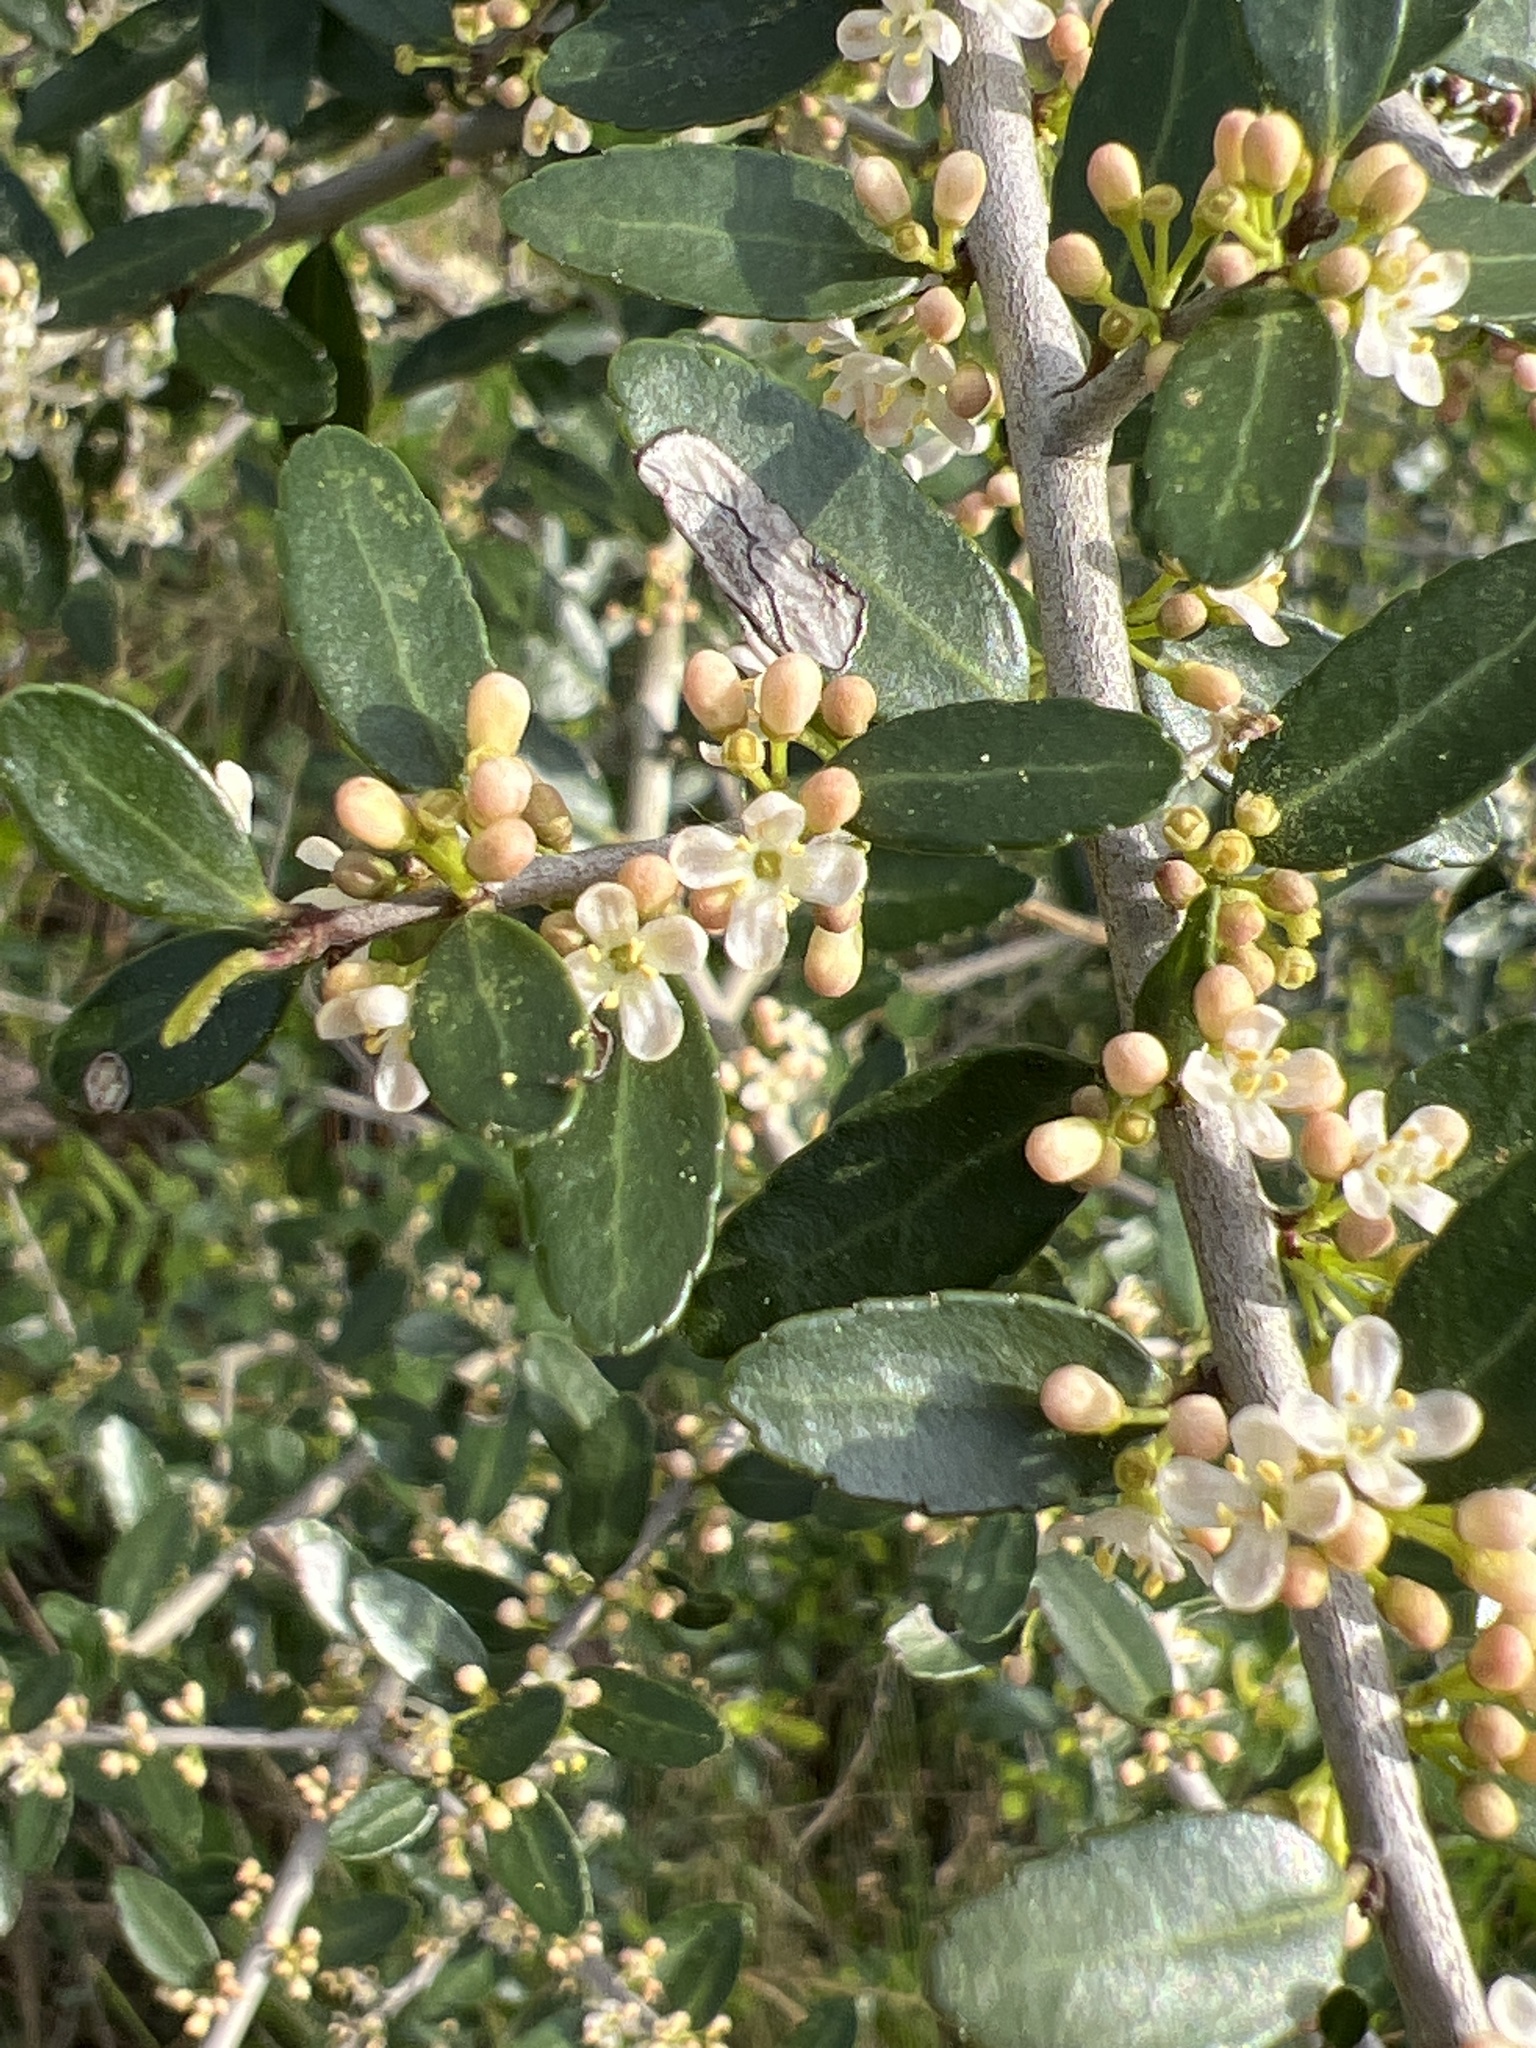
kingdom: Plantae
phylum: Tracheophyta
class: Magnoliopsida
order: Aquifoliales
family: Aquifoliaceae
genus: Ilex
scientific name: Ilex vomitoria
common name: Yaupon holly
